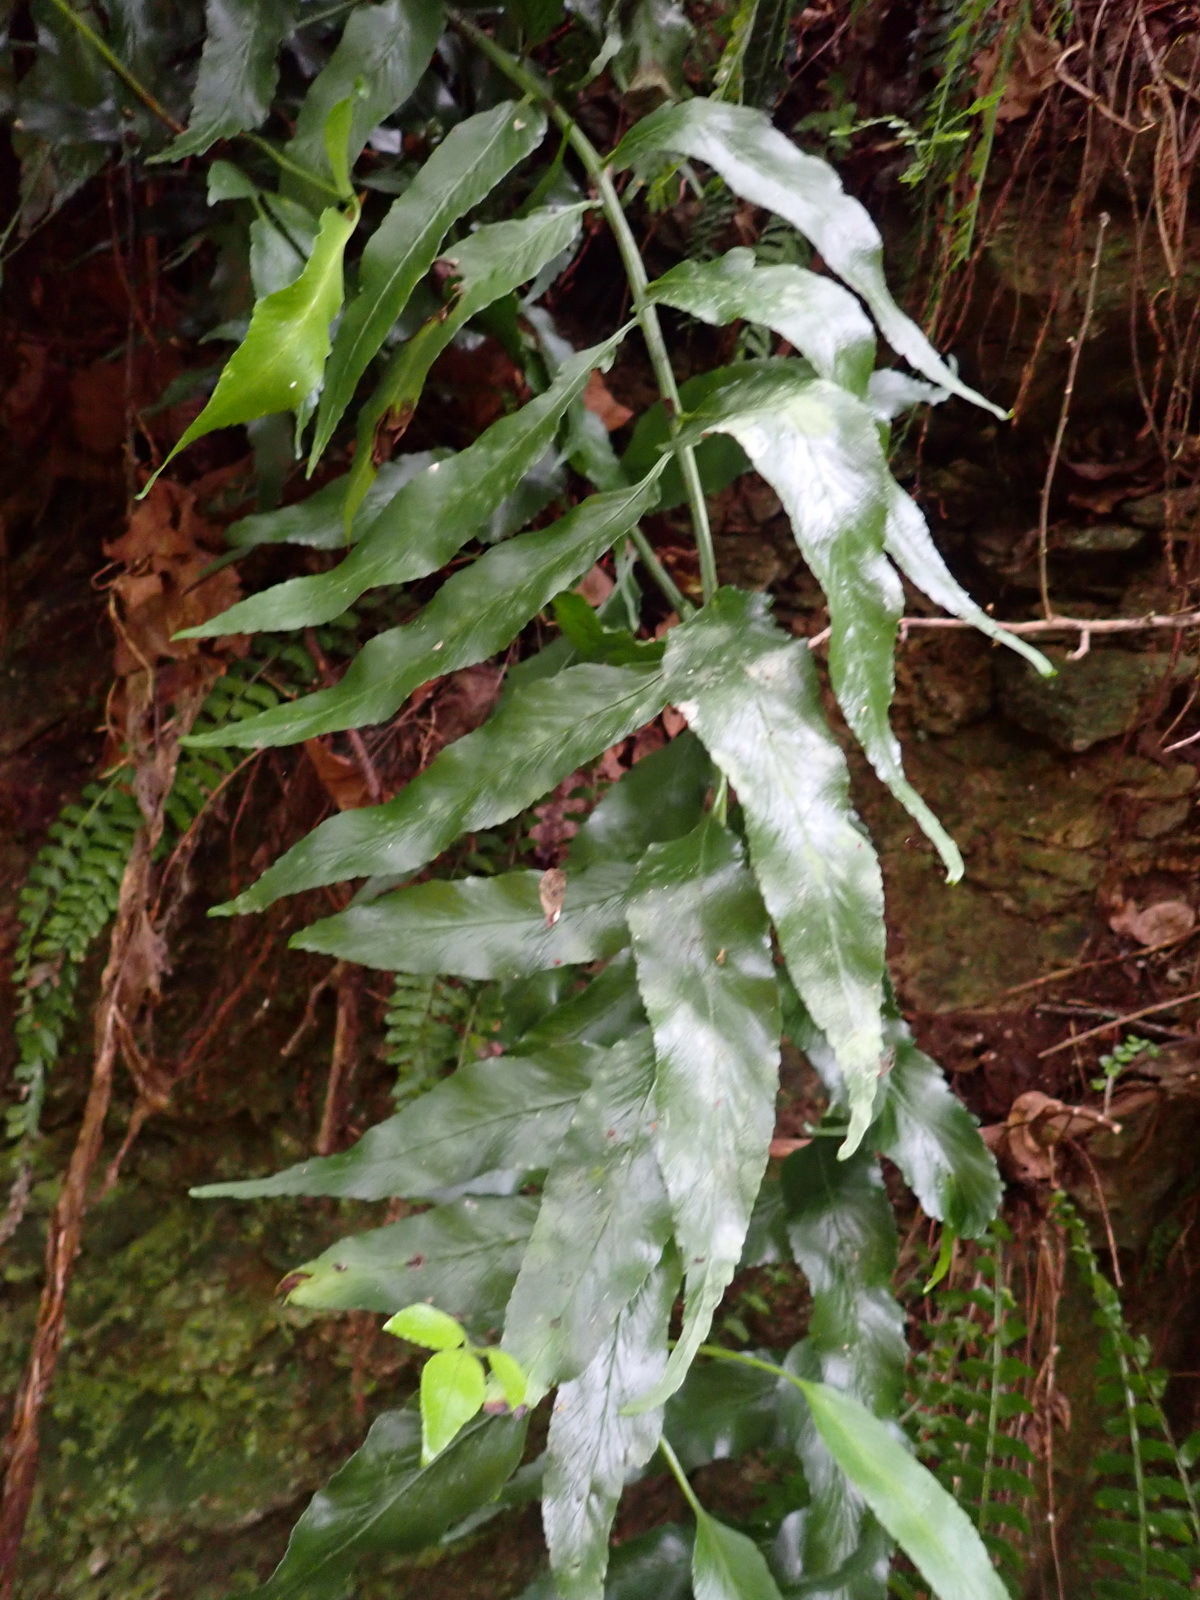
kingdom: Plantae
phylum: Tracheophyta
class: Polypodiopsida
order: Polypodiales
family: Aspleniaceae
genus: Asplenium
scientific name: Asplenium gemmiferum
